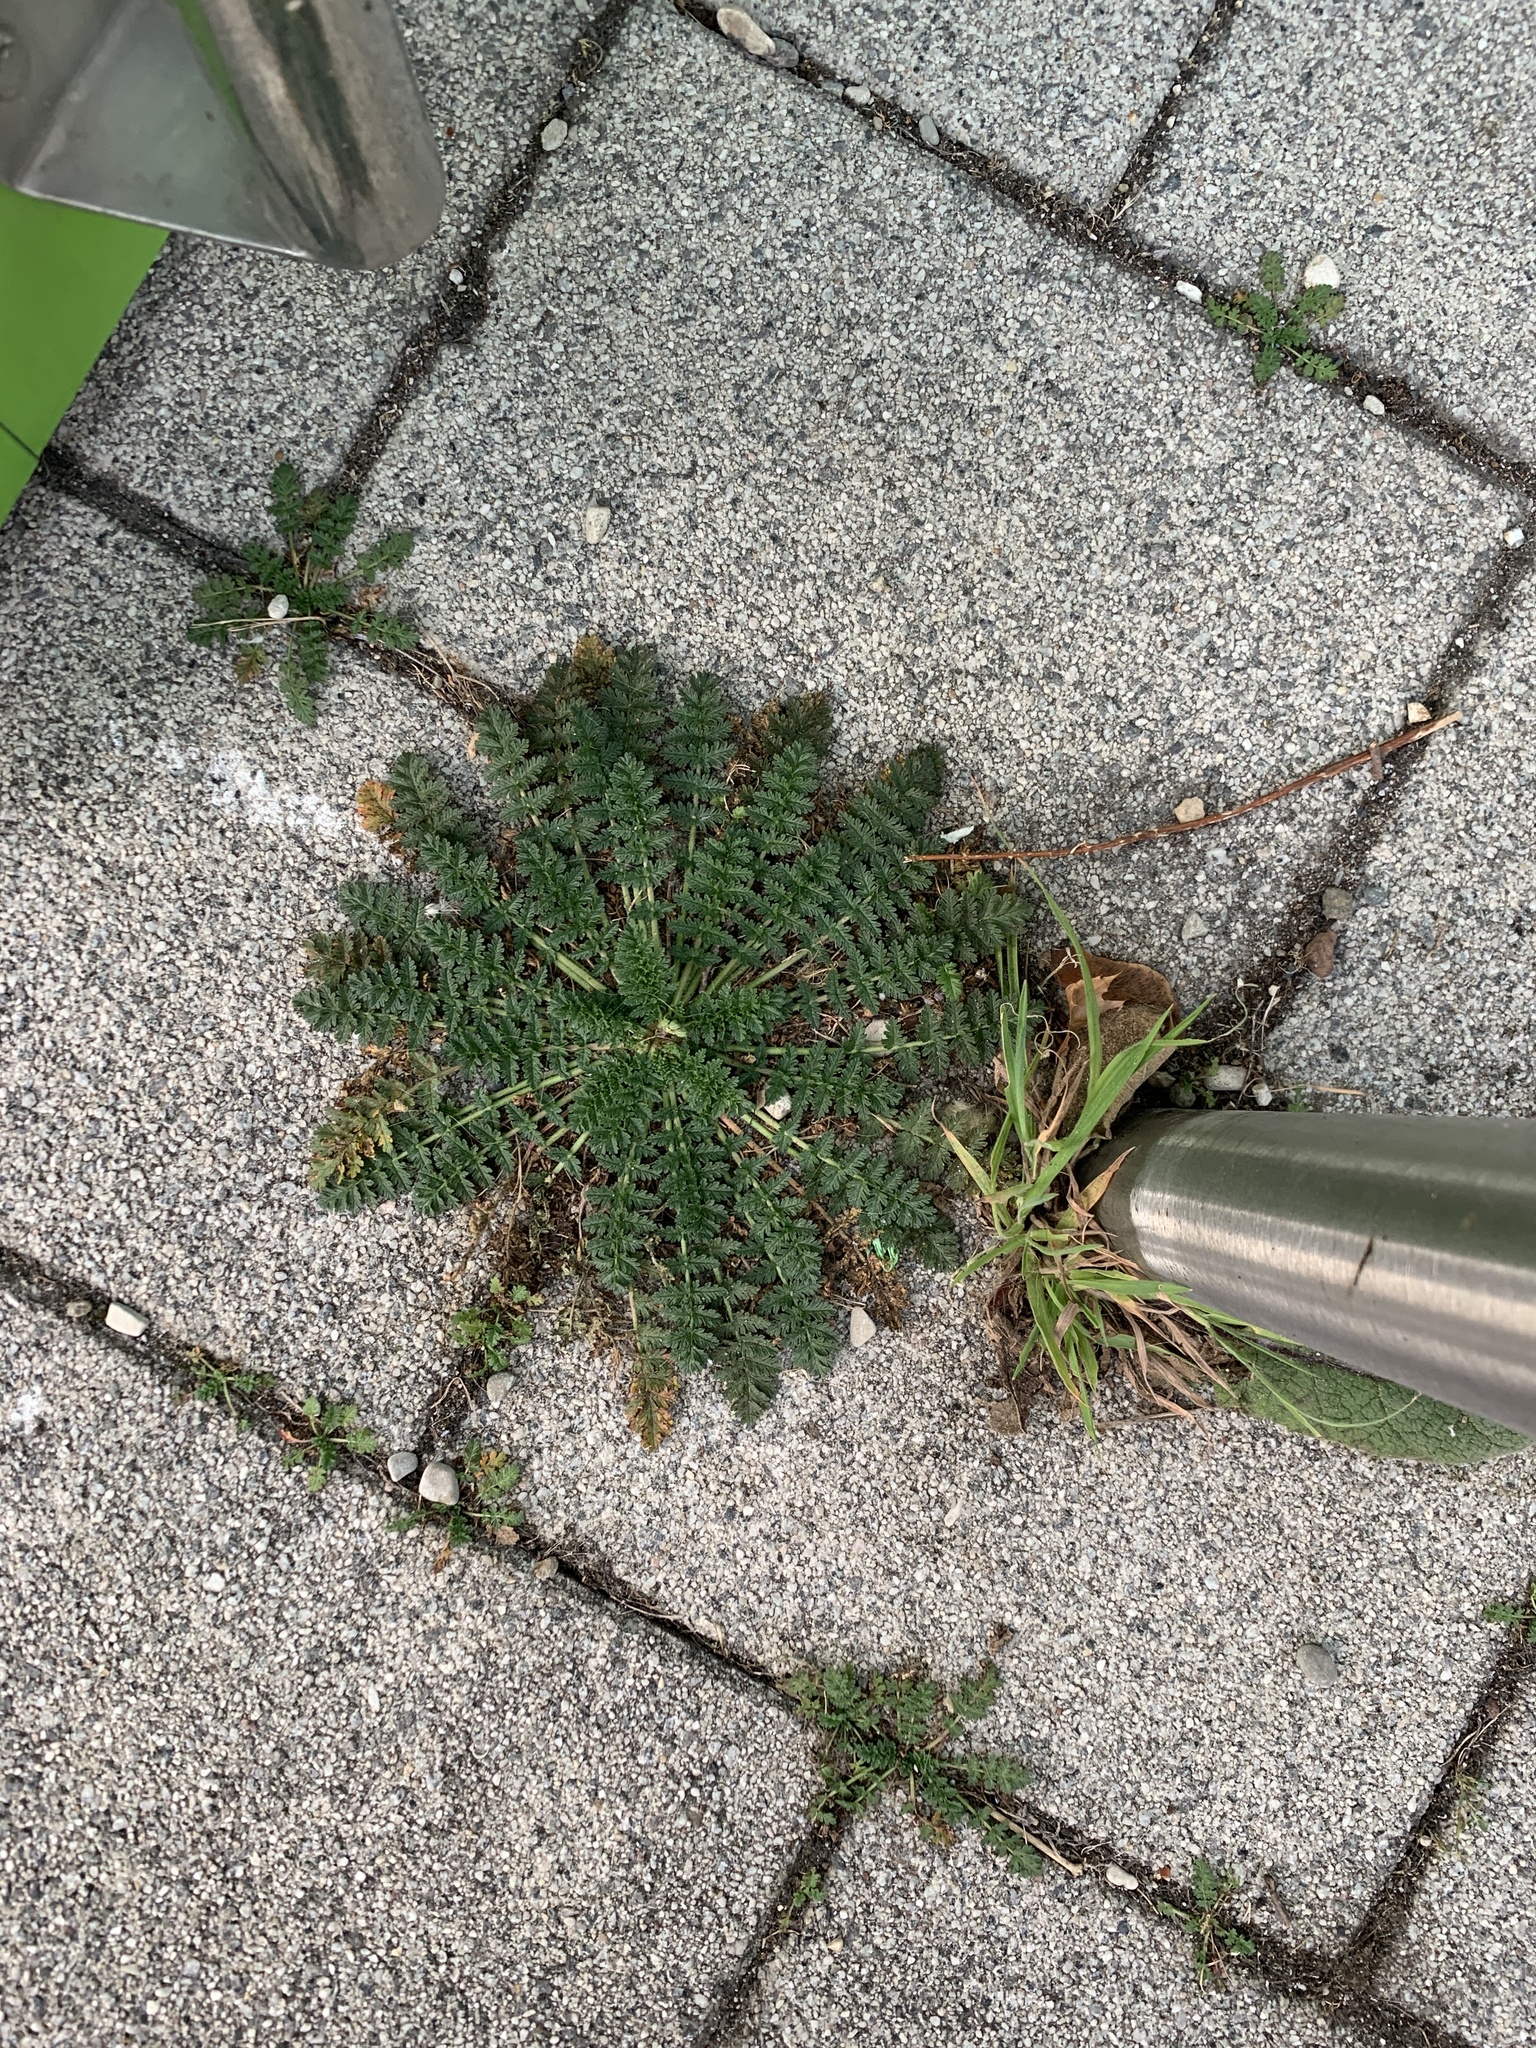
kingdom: Plantae
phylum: Tracheophyta
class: Magnoliopsida
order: Geraniales
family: Geraniaceae
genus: Erodium
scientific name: Erodium cicutarium
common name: Common stork's-bill
